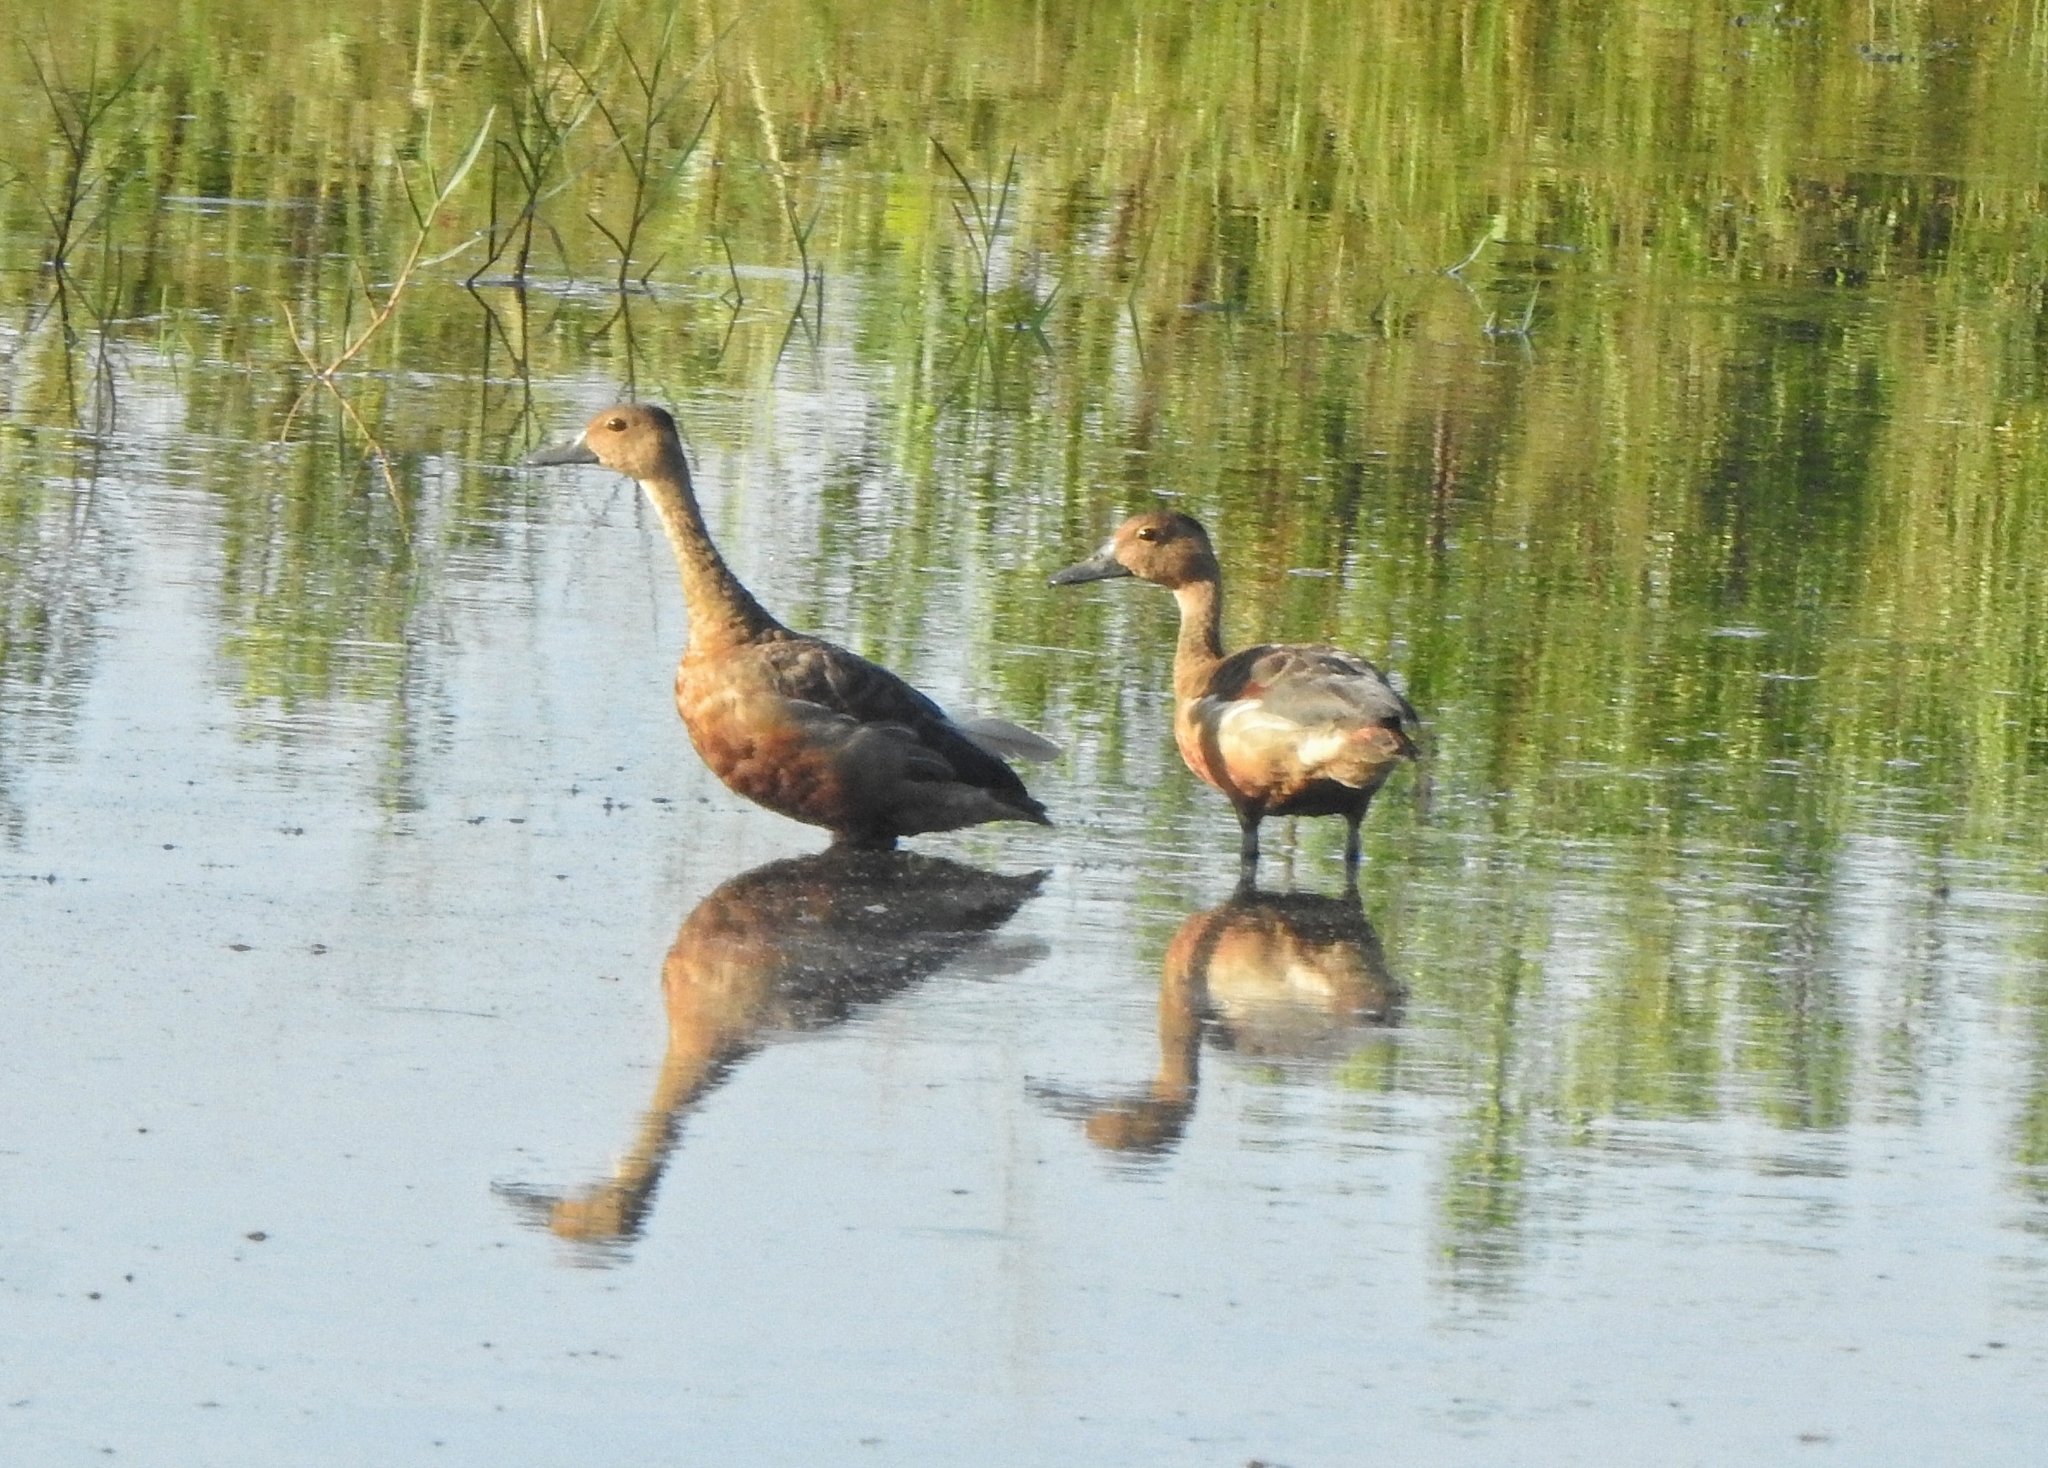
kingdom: Animalia
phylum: Chordata
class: Aves
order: Anseriformes
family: Anatidae
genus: Dendrocygna
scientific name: Dendrocygna javanica
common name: Lesser whistling-duck
